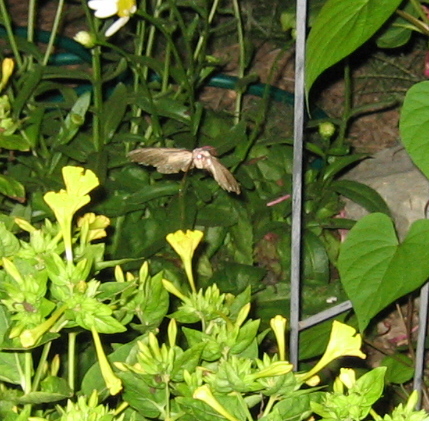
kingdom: Animalia
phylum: Arthropoda
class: Insecta
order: Lepidoptera
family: Sphingidae
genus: Manduca
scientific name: Manduca sexta
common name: Carolina sphinx
